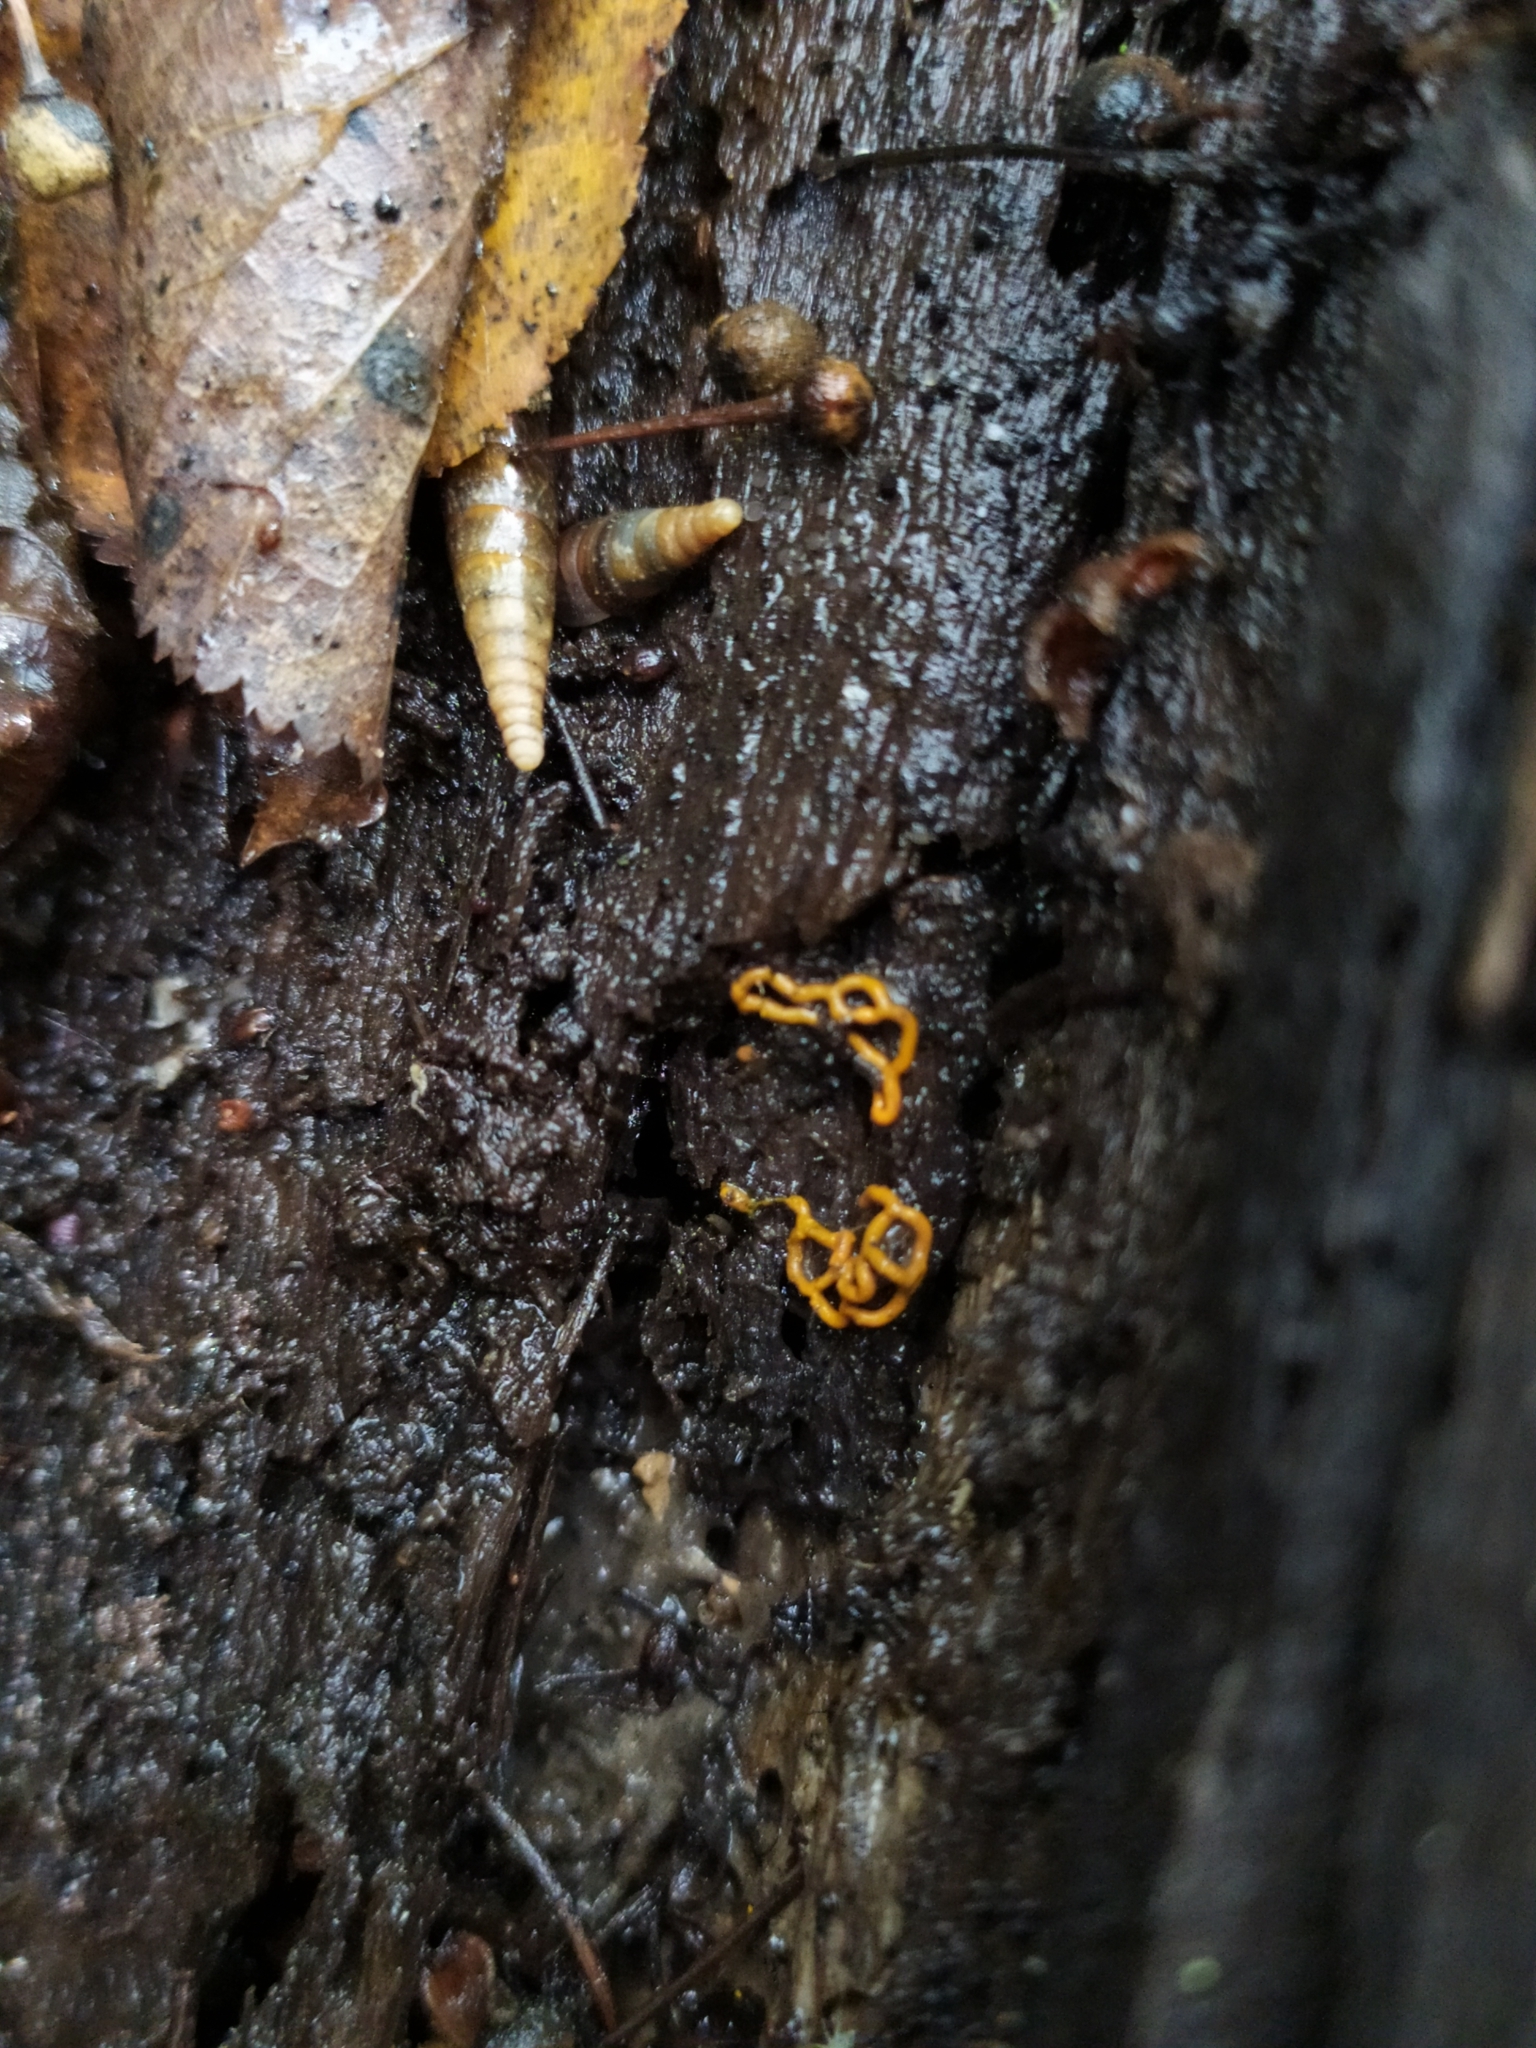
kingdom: Protozoa
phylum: Mycetozoa
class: Myxomycetes
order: Trichiales
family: Arcyriaceae
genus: Hemitrichia
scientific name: Hemitrichia serpula
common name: Pretzel slime mold
